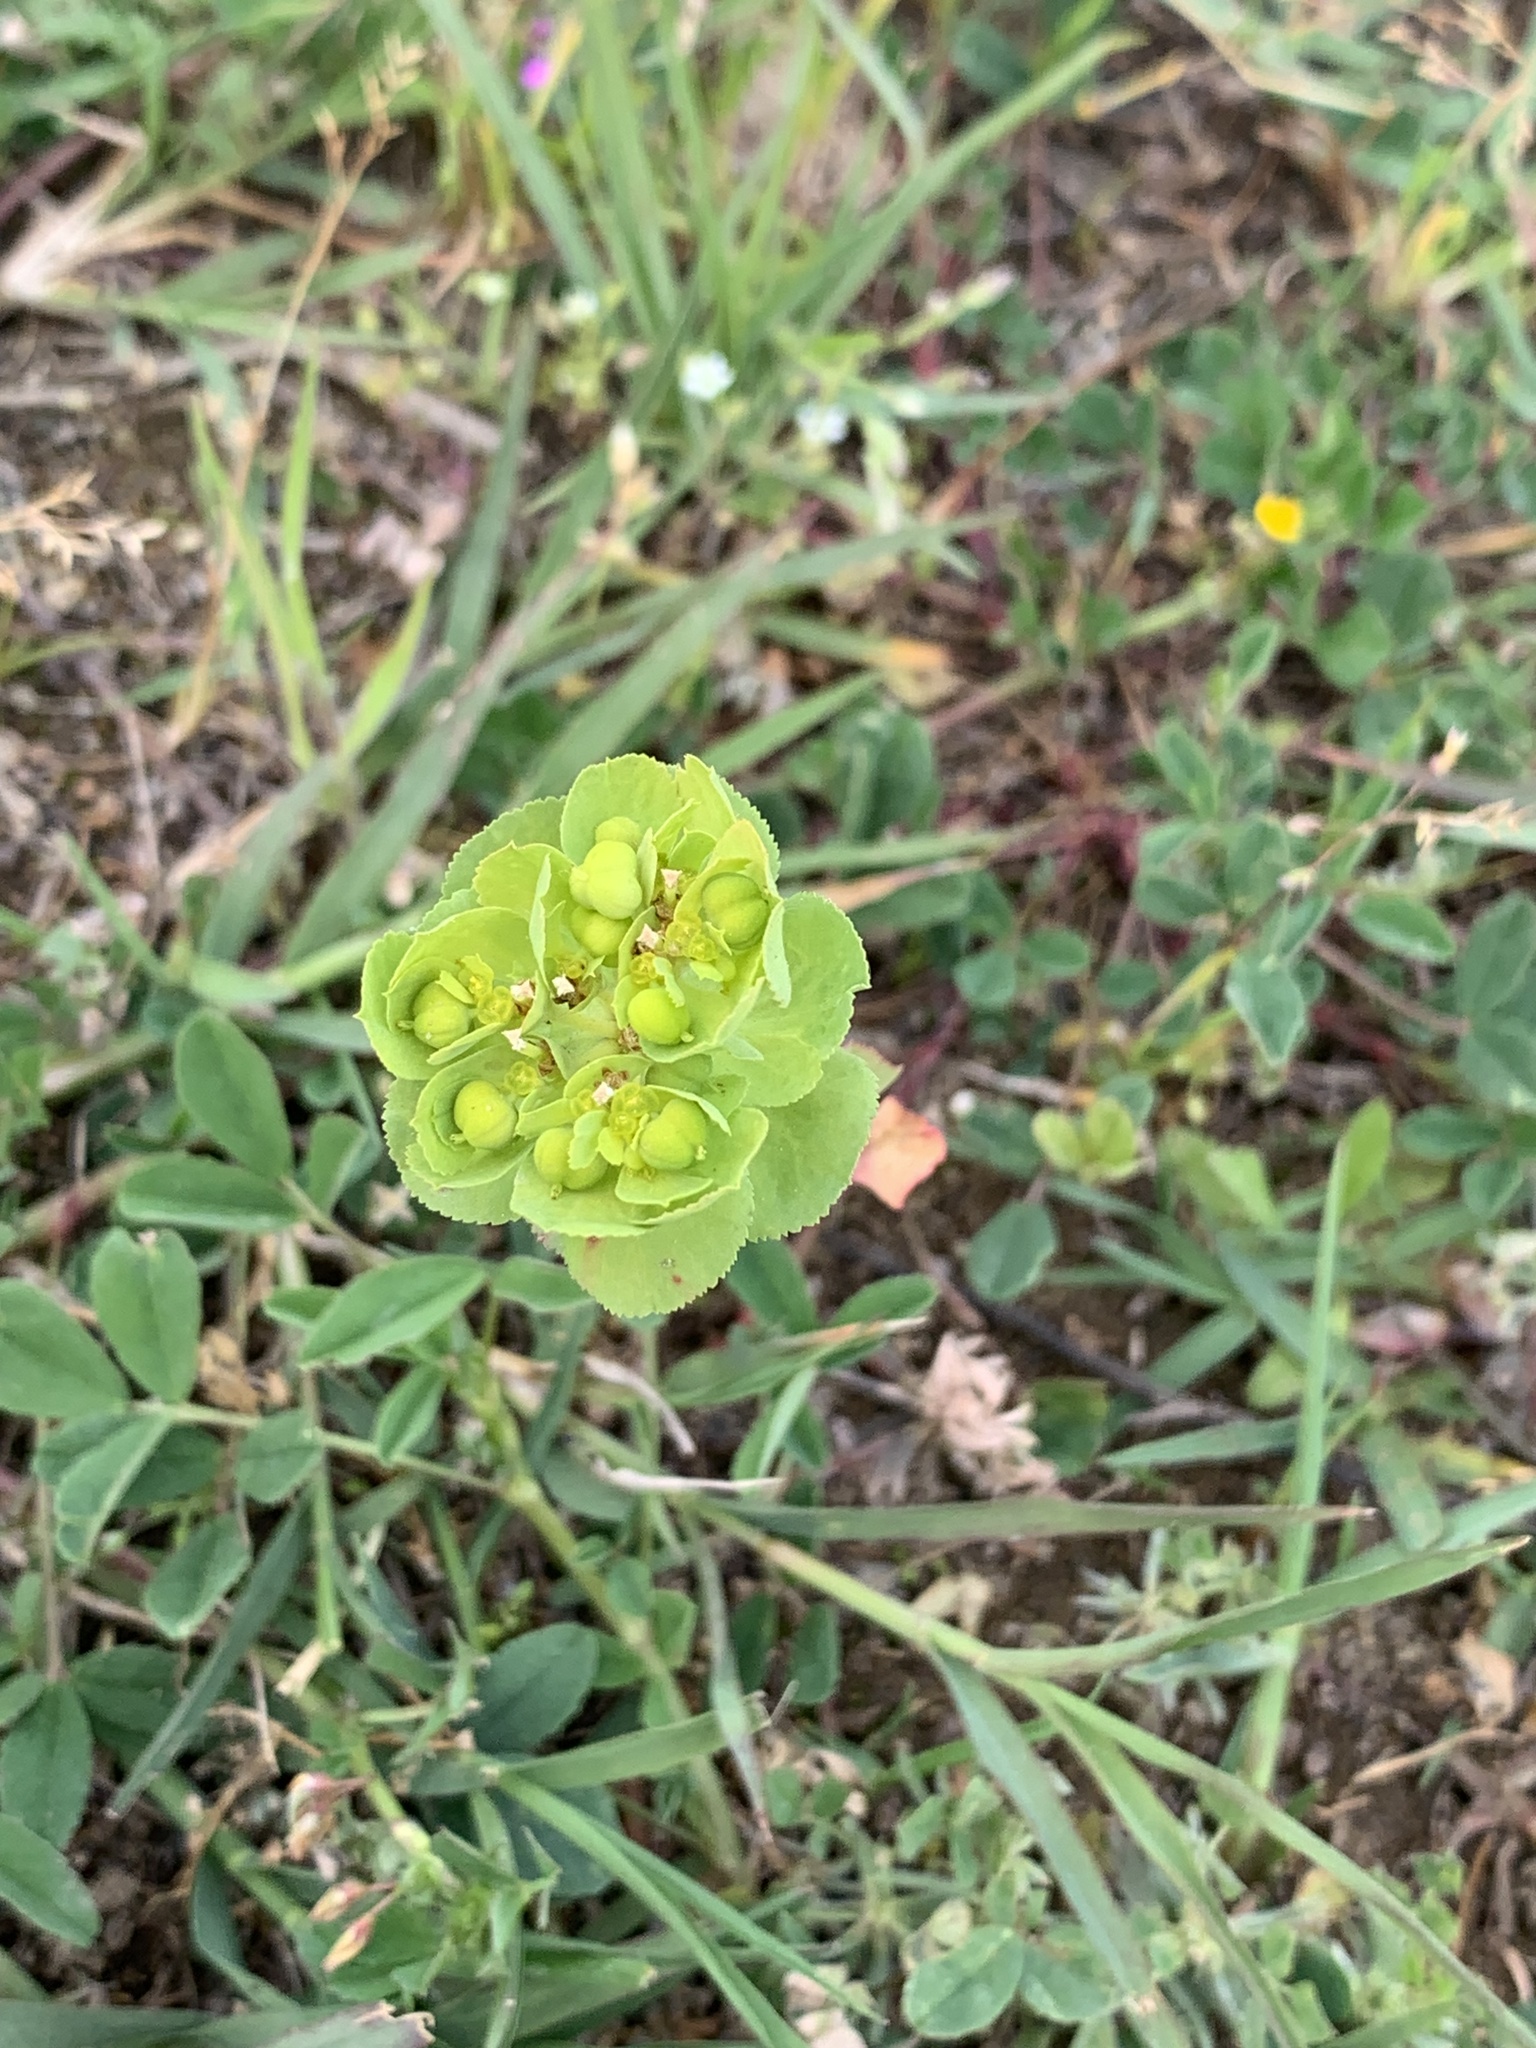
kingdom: Plantae
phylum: Tracheophyta
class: Magnoliopsida
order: Malpighiales
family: Euphorbiaceae
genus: Euphorbia
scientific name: Euphorbia helioscopia
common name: Sun spurge
